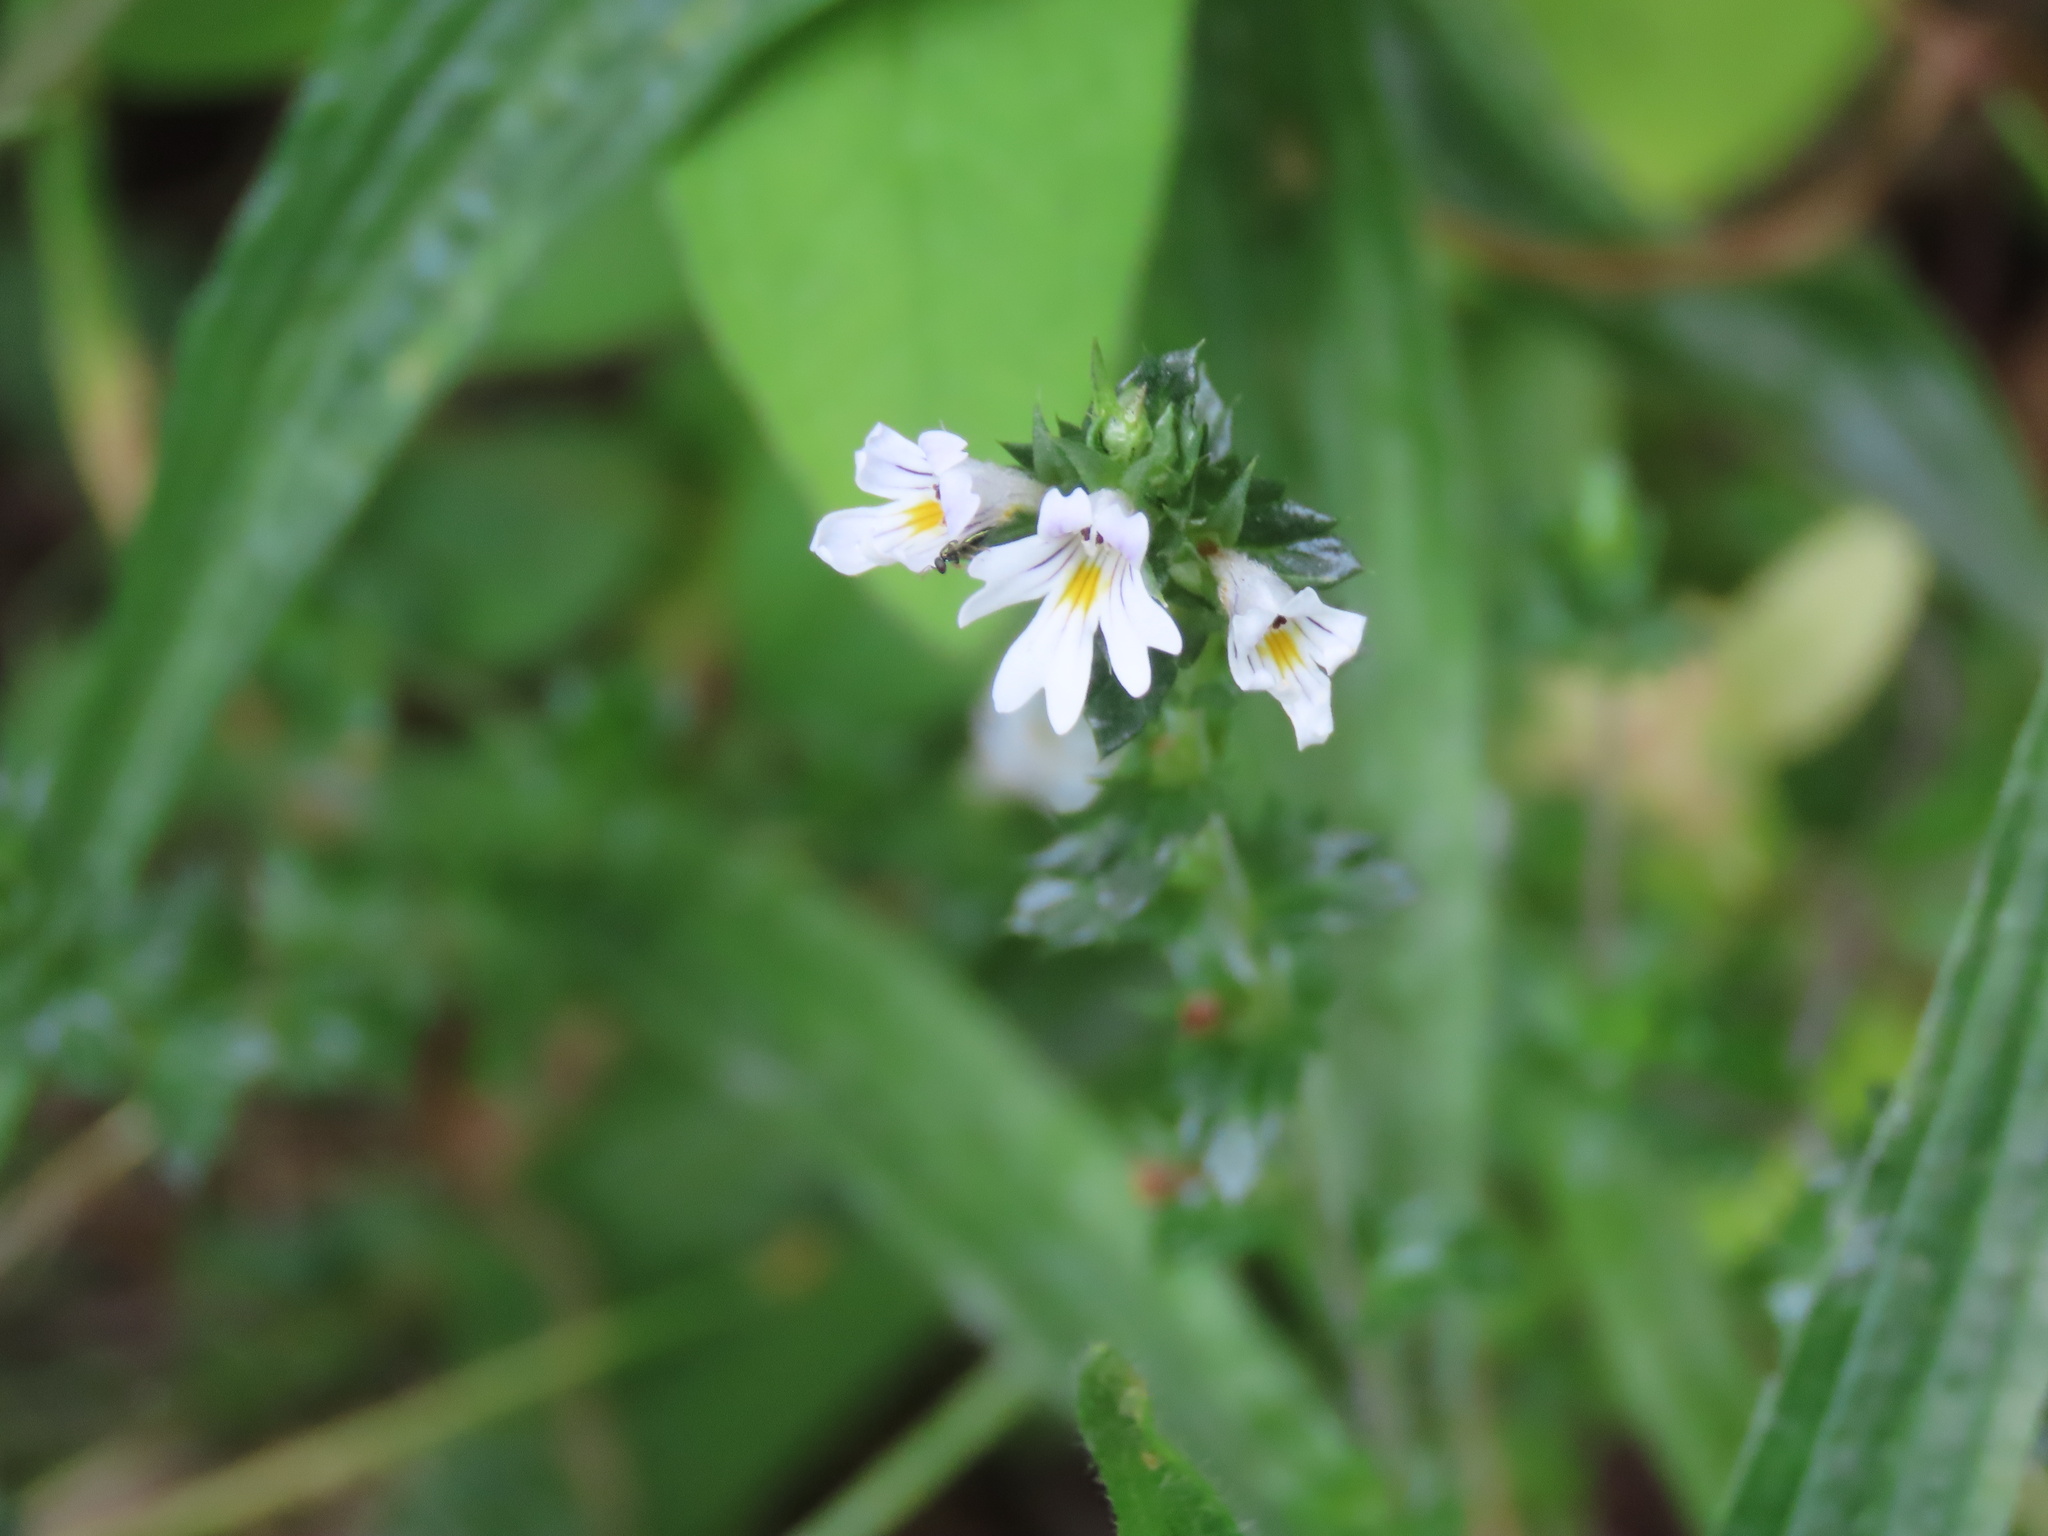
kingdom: Plantae
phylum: Tracheophyta
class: Magnoliopsida
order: Lamiales
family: Orobanchaceae
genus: Euphrasia
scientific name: Euphrasia nemorosa
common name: Common eyebright
